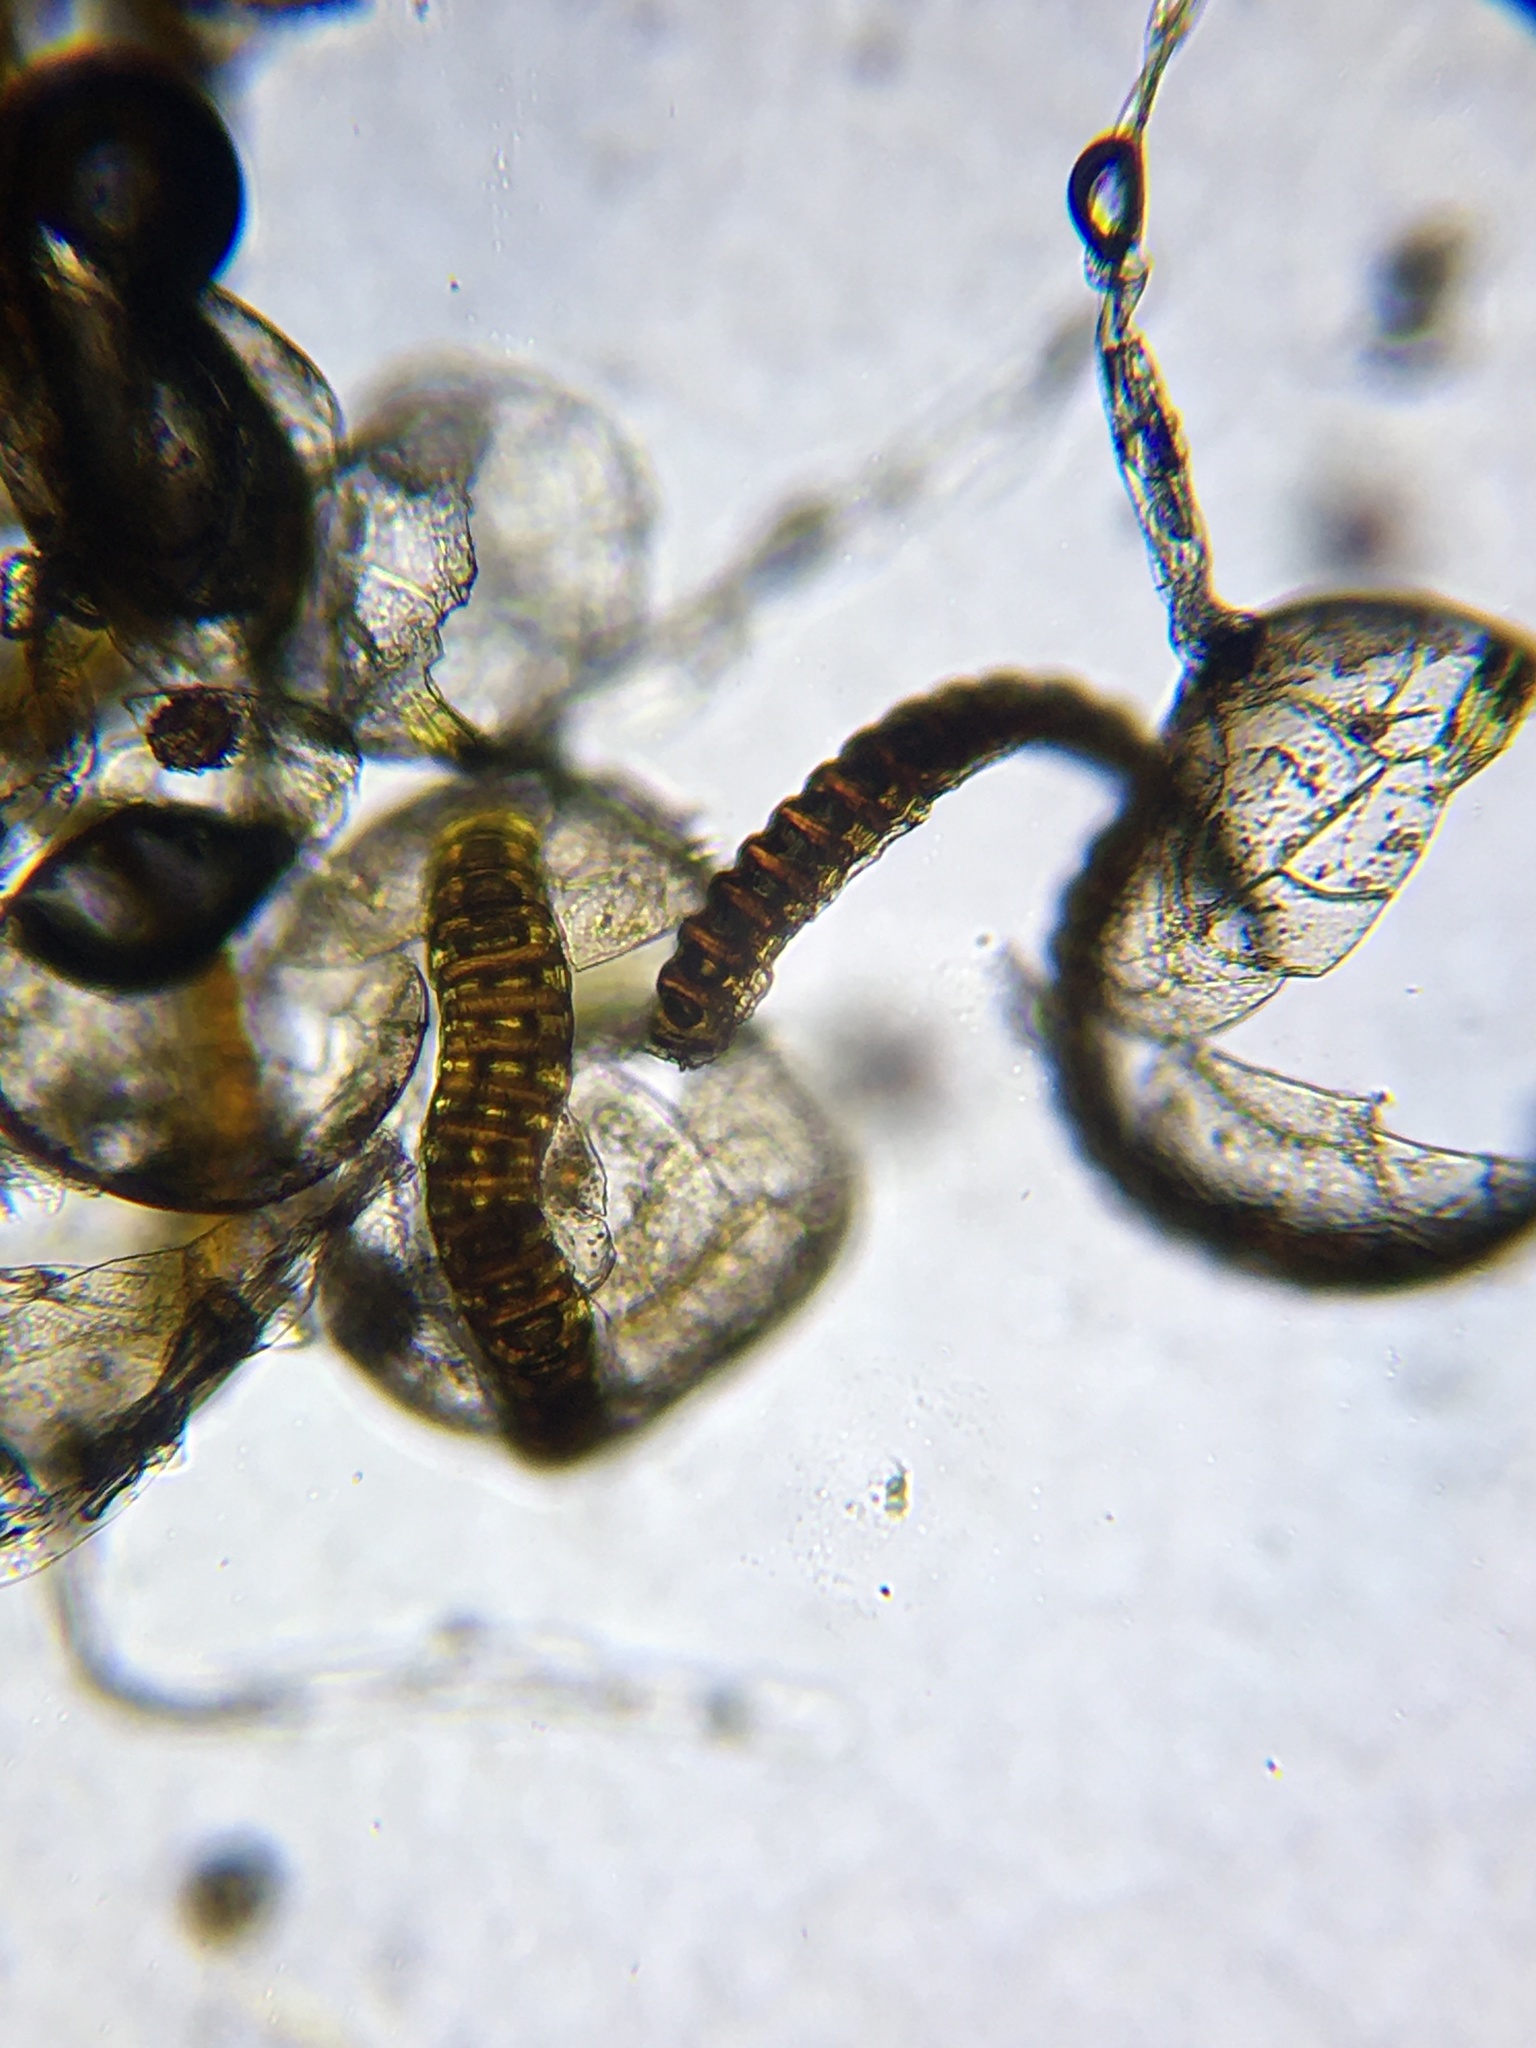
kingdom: Plantae
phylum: Tracheophyta
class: Polypodiopsida
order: Polypodiales
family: Aspleniaceae
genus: Asplenium
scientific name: Asplenium pinnatifidum
